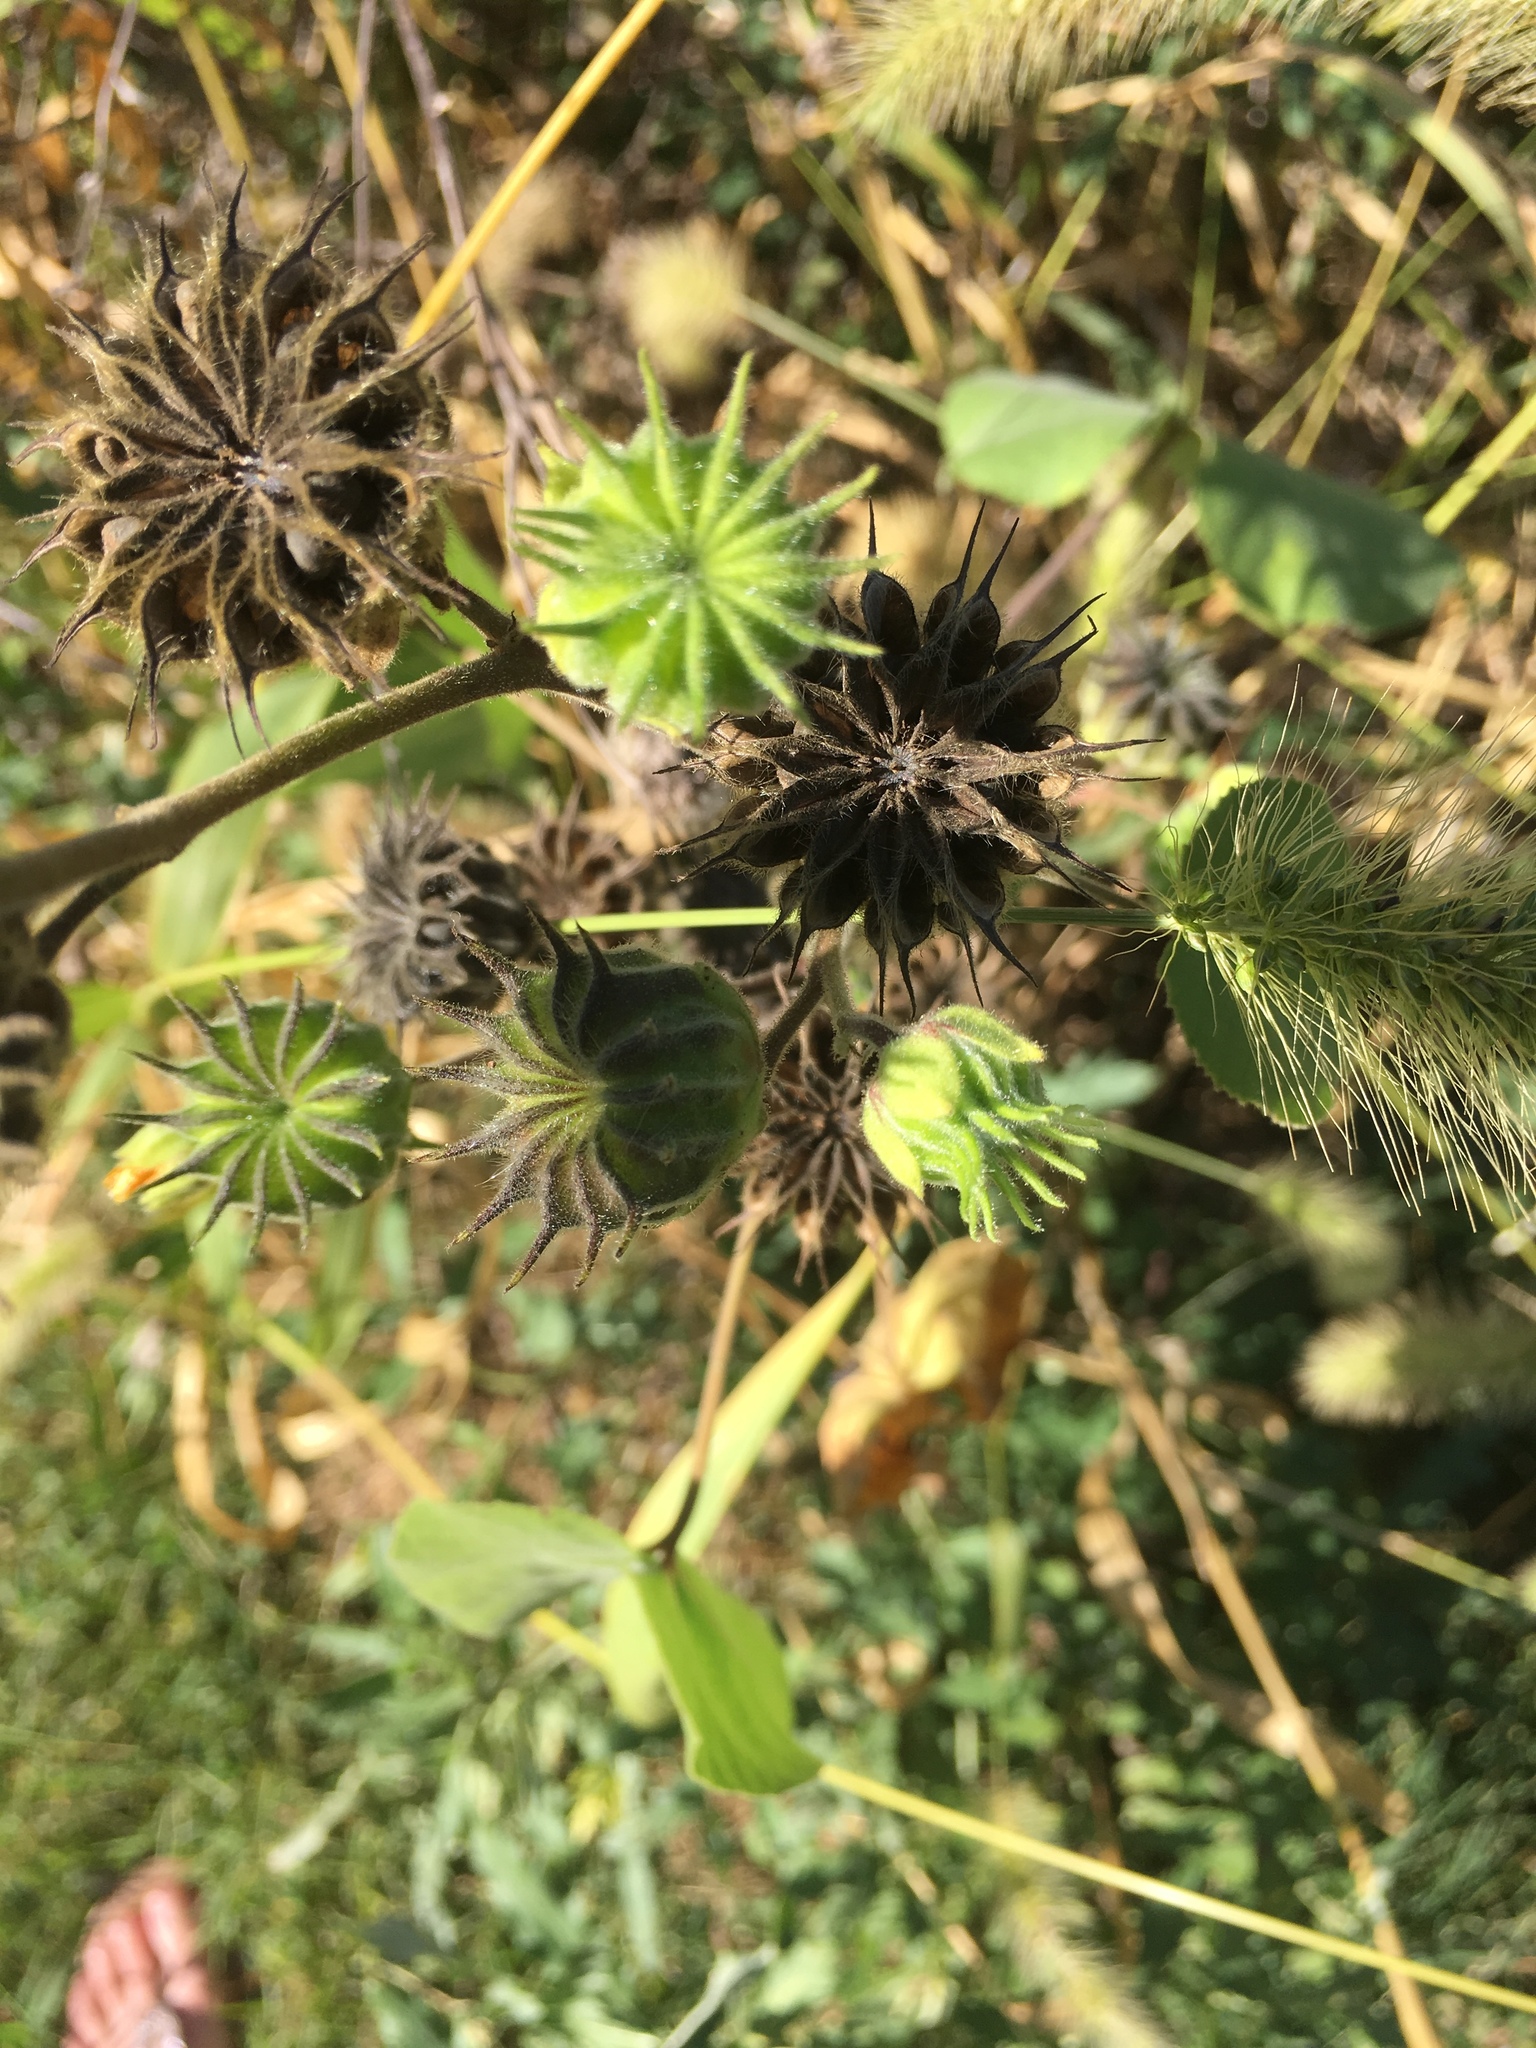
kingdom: Plantae
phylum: Tracheophyta
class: Magnoliopsida
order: Malvales
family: Malvaceae
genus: Abutilon
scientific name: Abutilon theophrasti
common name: Velvetleaf
